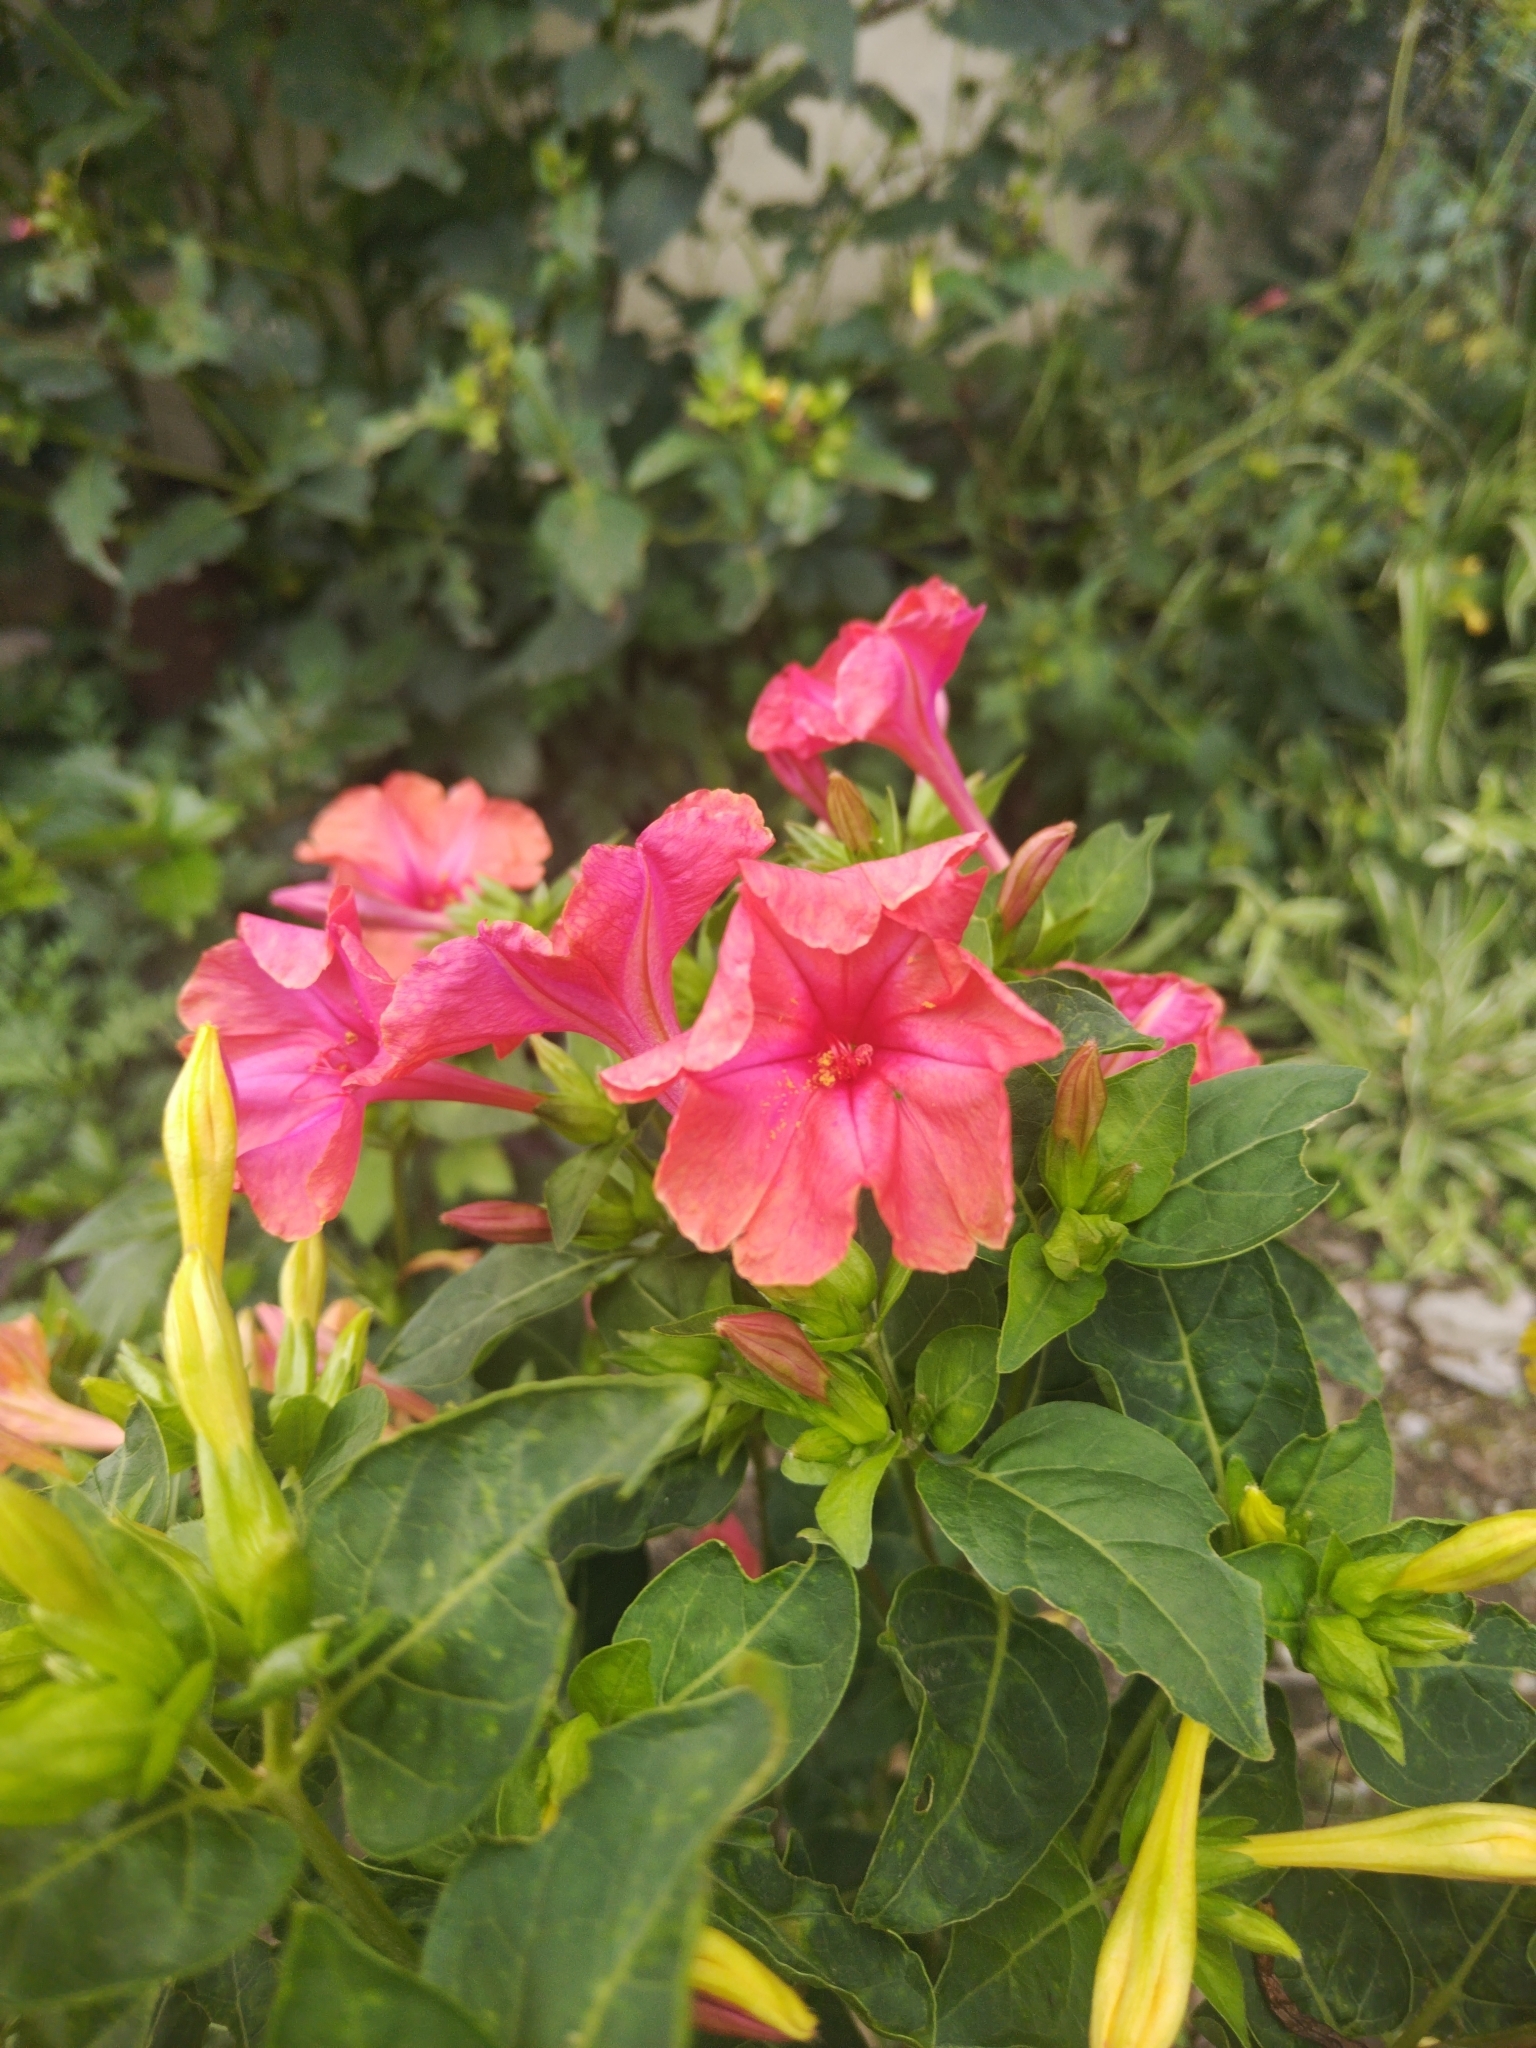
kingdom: Plantae
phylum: Tracheophyta
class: Magnoliopsida
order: Caryophyllales
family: Nyctaginaceae
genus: Mirabilis
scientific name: Mirabilis jalapa
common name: Marvel-of-peru
